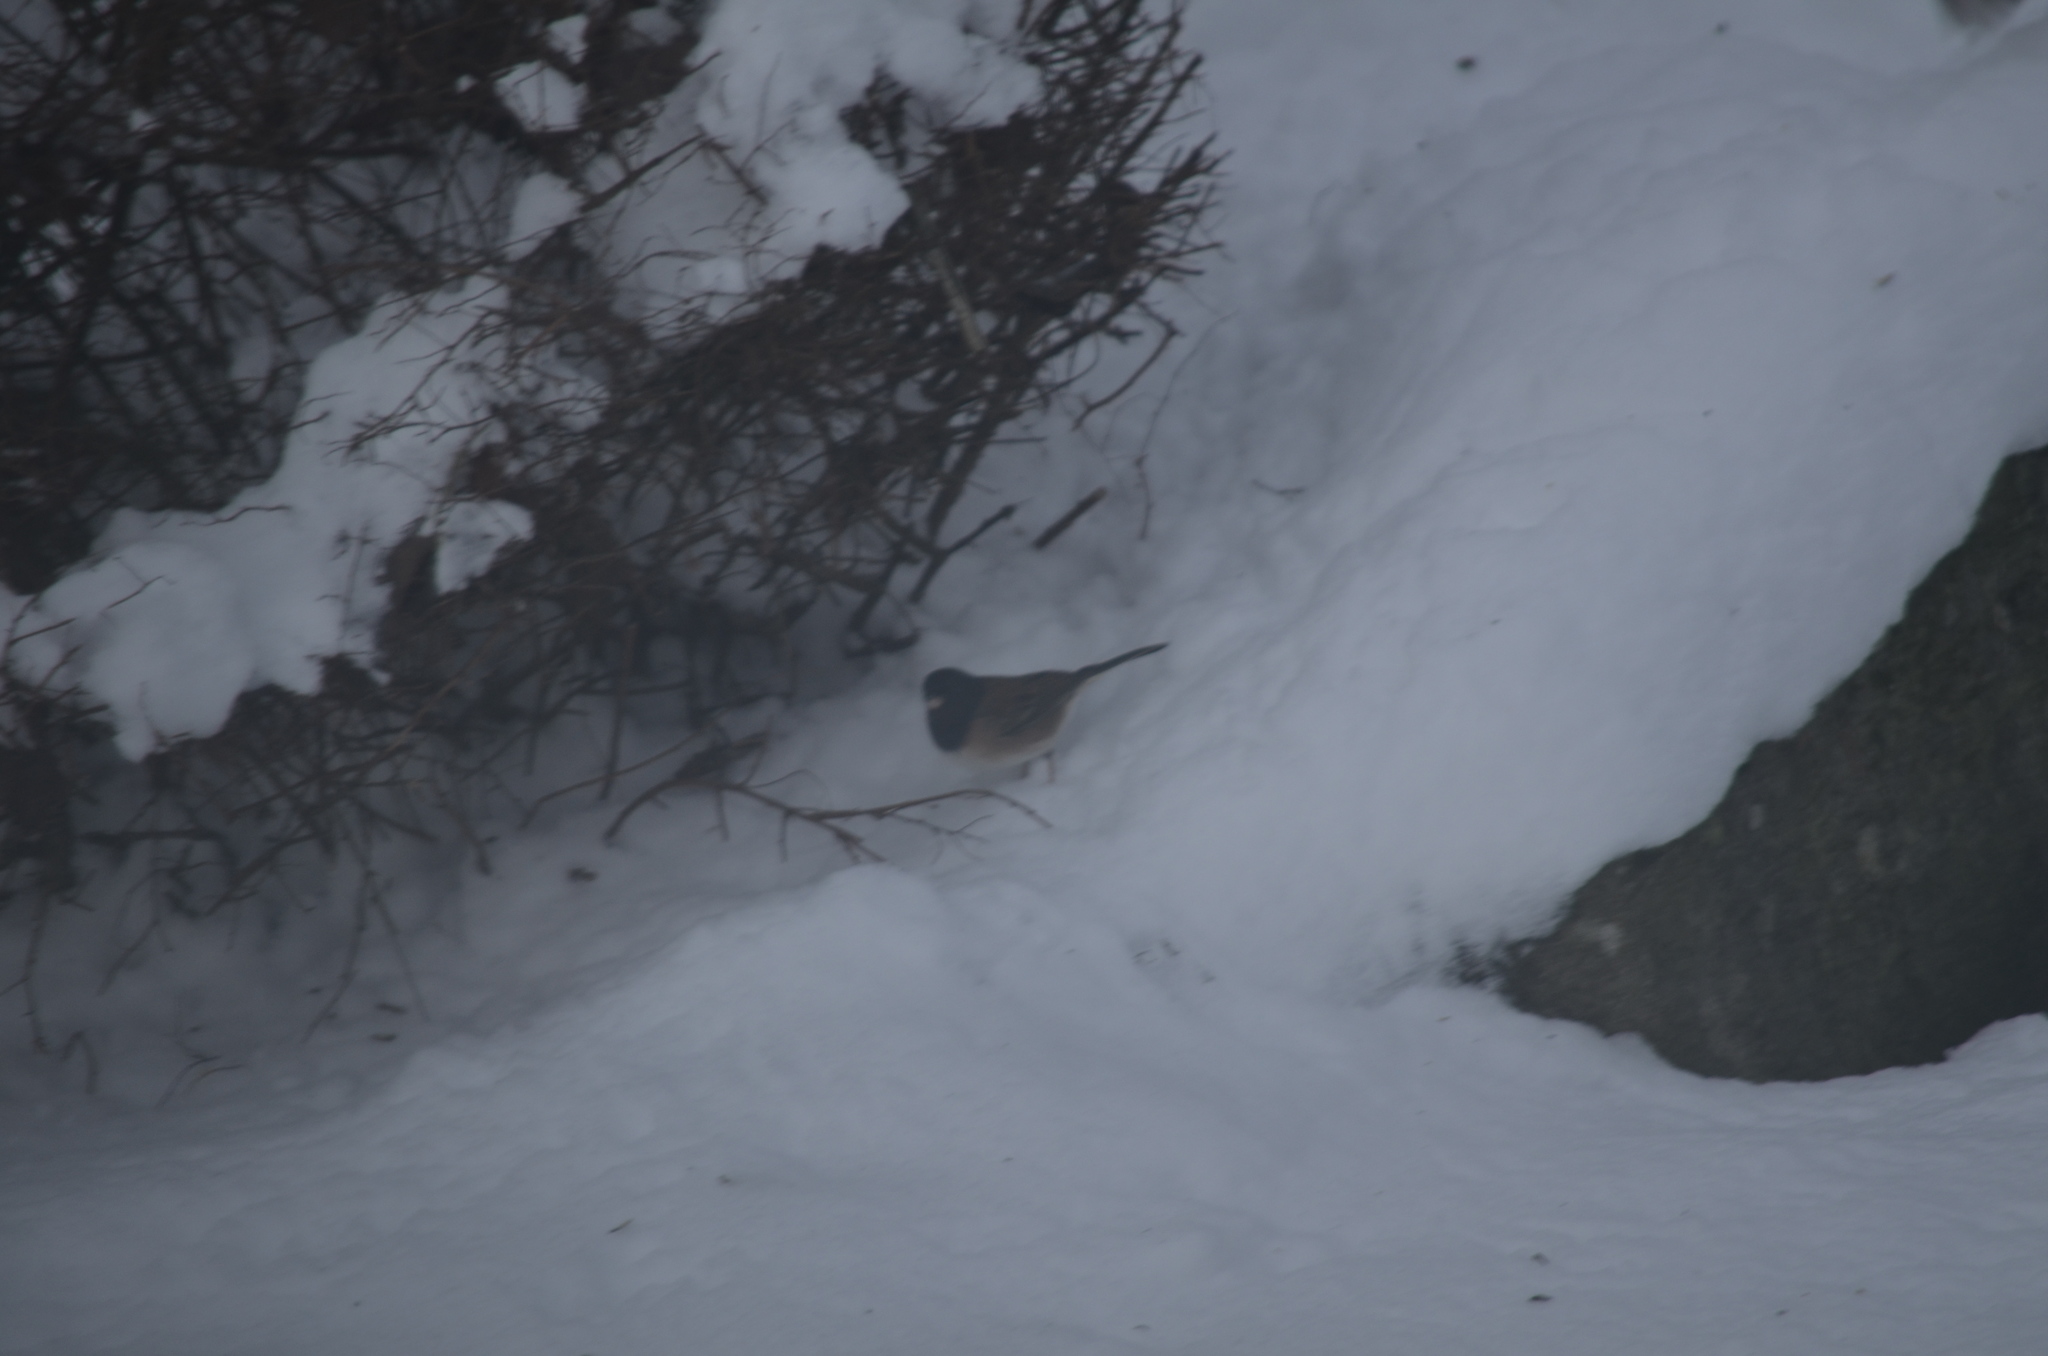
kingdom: Animalia
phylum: Chordata
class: Aves
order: Passeriformes
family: Passerellidae
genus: Junco
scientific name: Junco hyemalis
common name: Dark-eyed junco
